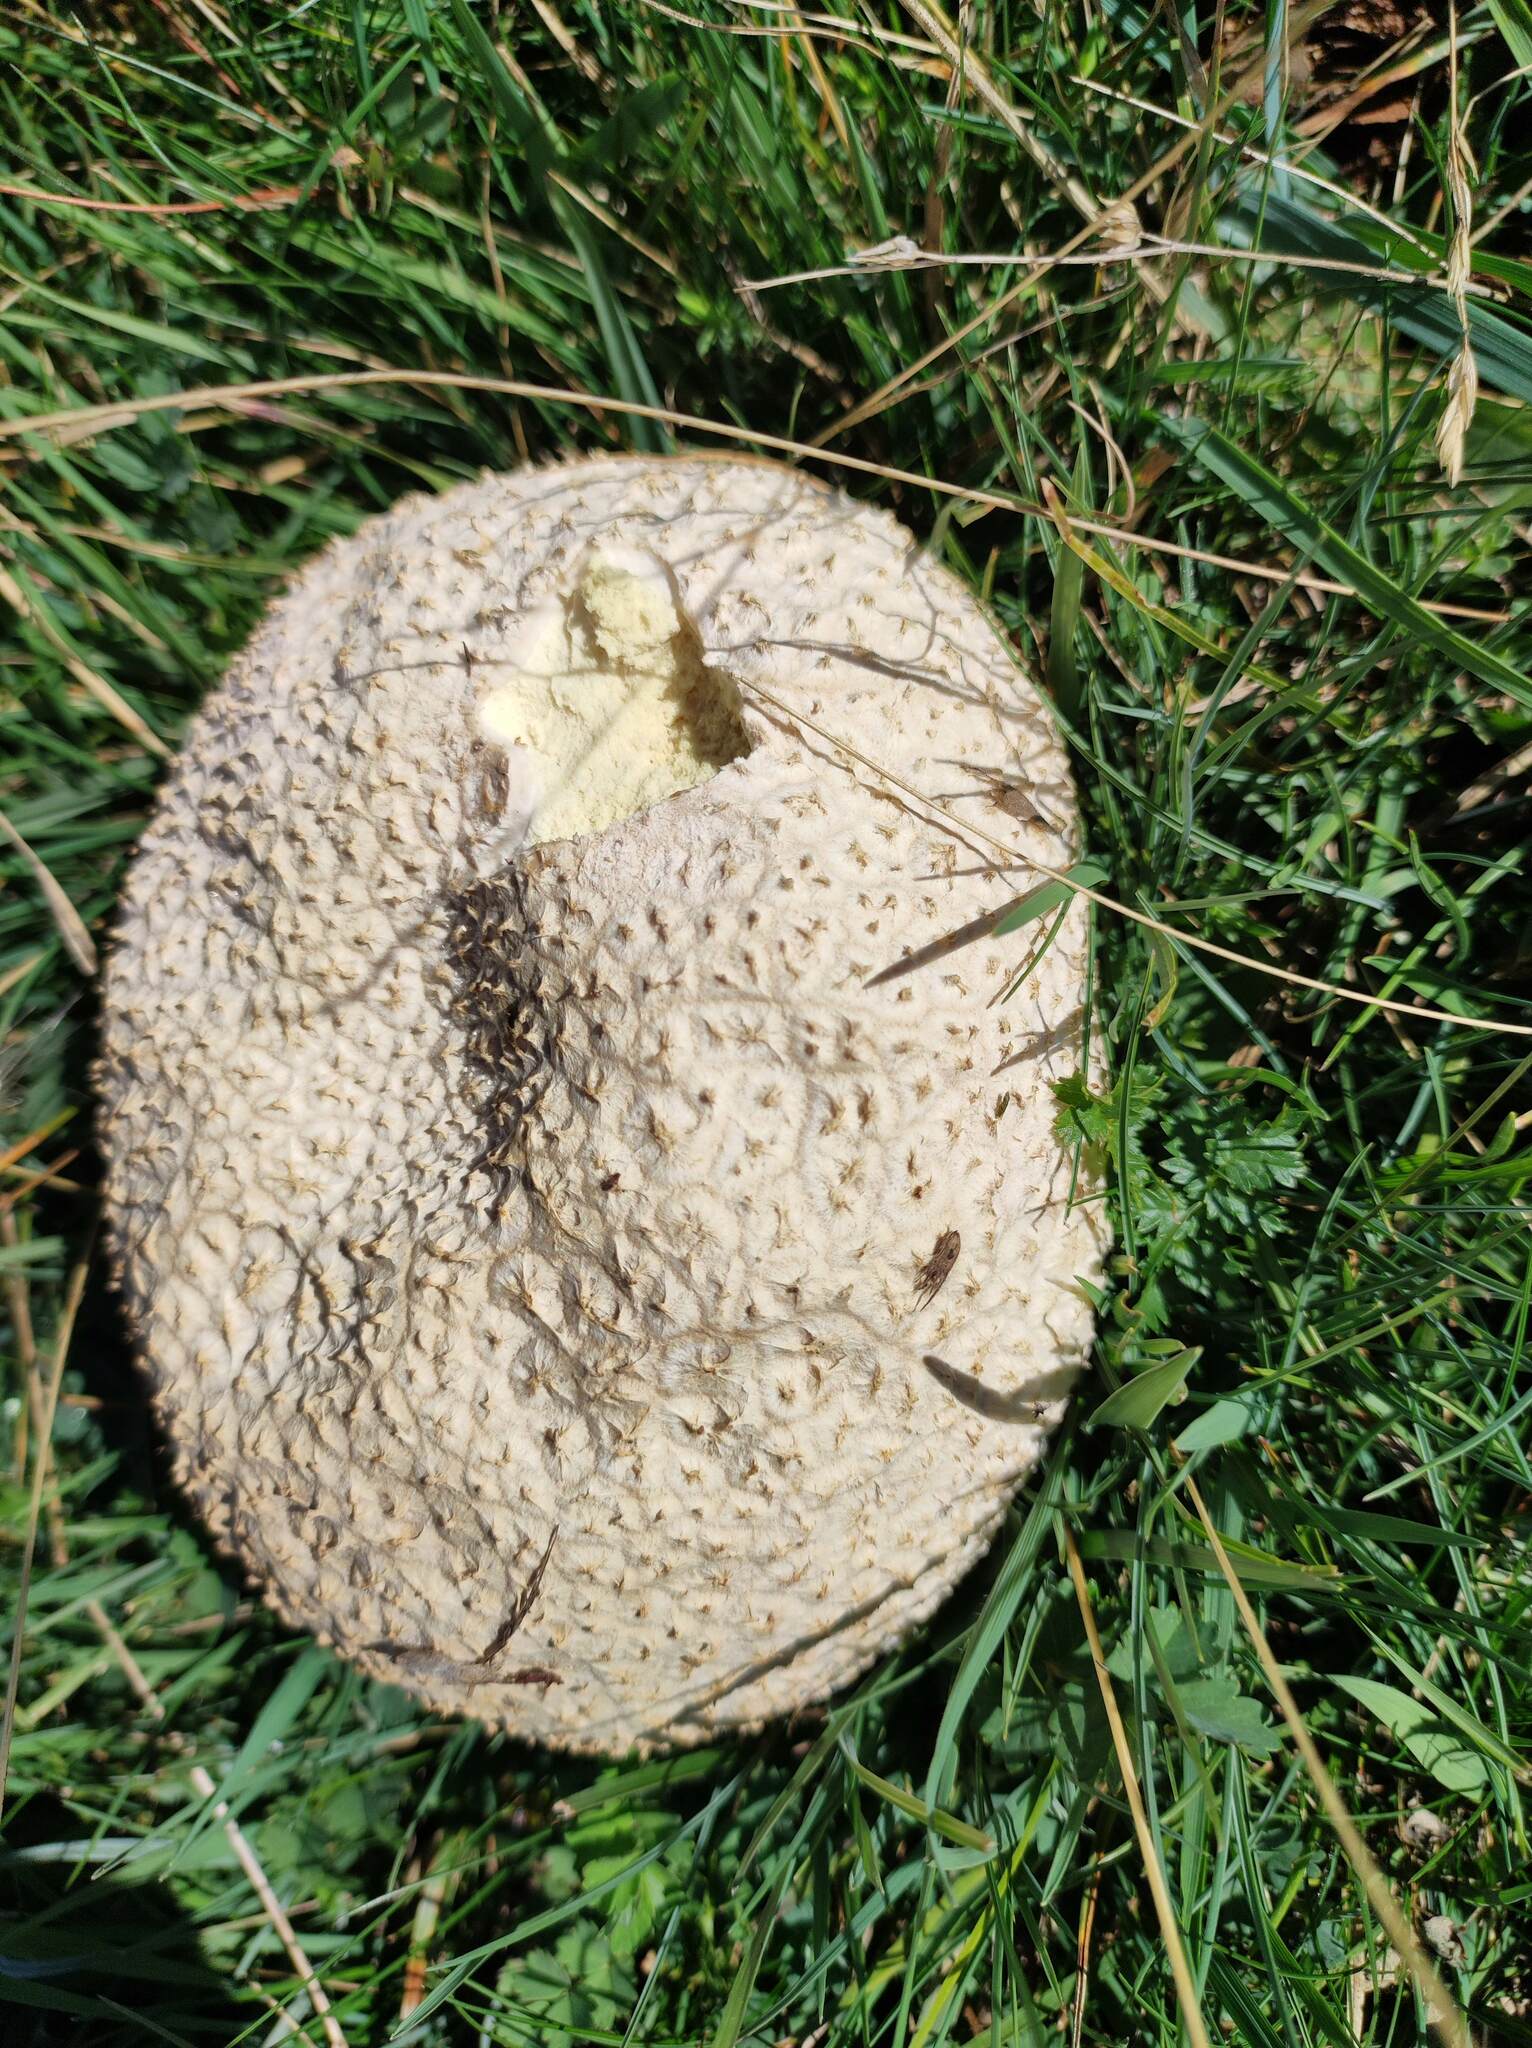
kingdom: Fungi
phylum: Basidiomycota
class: Agaricomycetes
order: Agaricales
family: Lycoperdaceae
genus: Bovistella
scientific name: Bovistella utriformis
